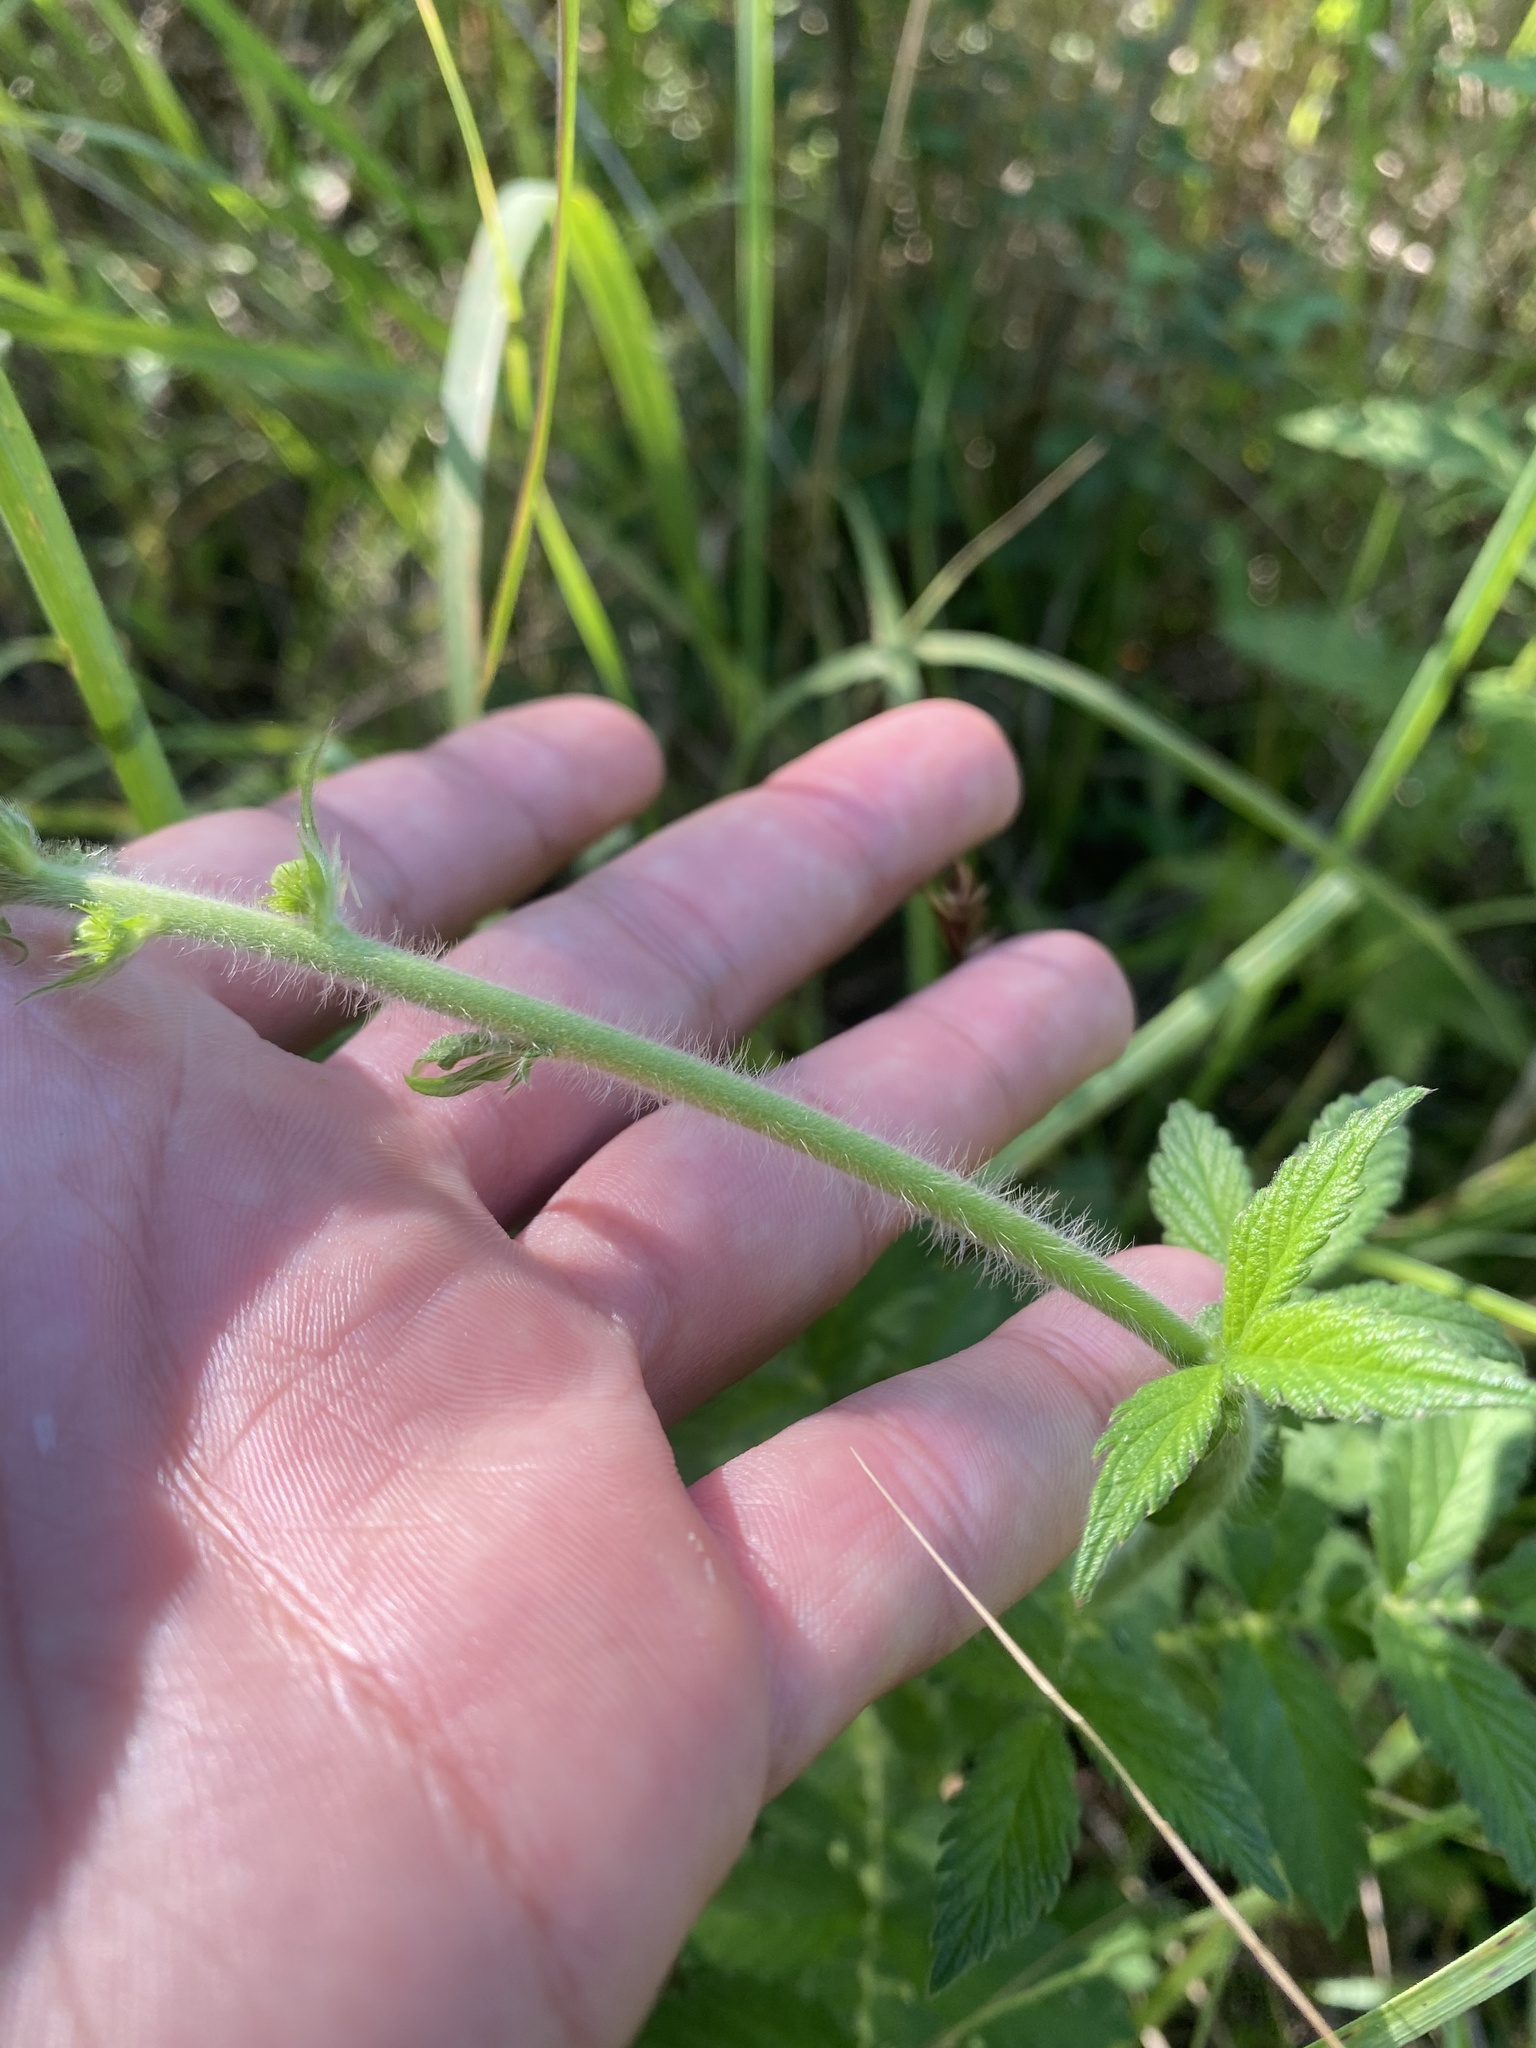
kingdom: Plantae
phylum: Tracheophyta
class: Magnoliopsida
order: Rosales
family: Rosaceae
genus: Agrimonia
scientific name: Agrimonia eupatoria
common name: Agrimony
